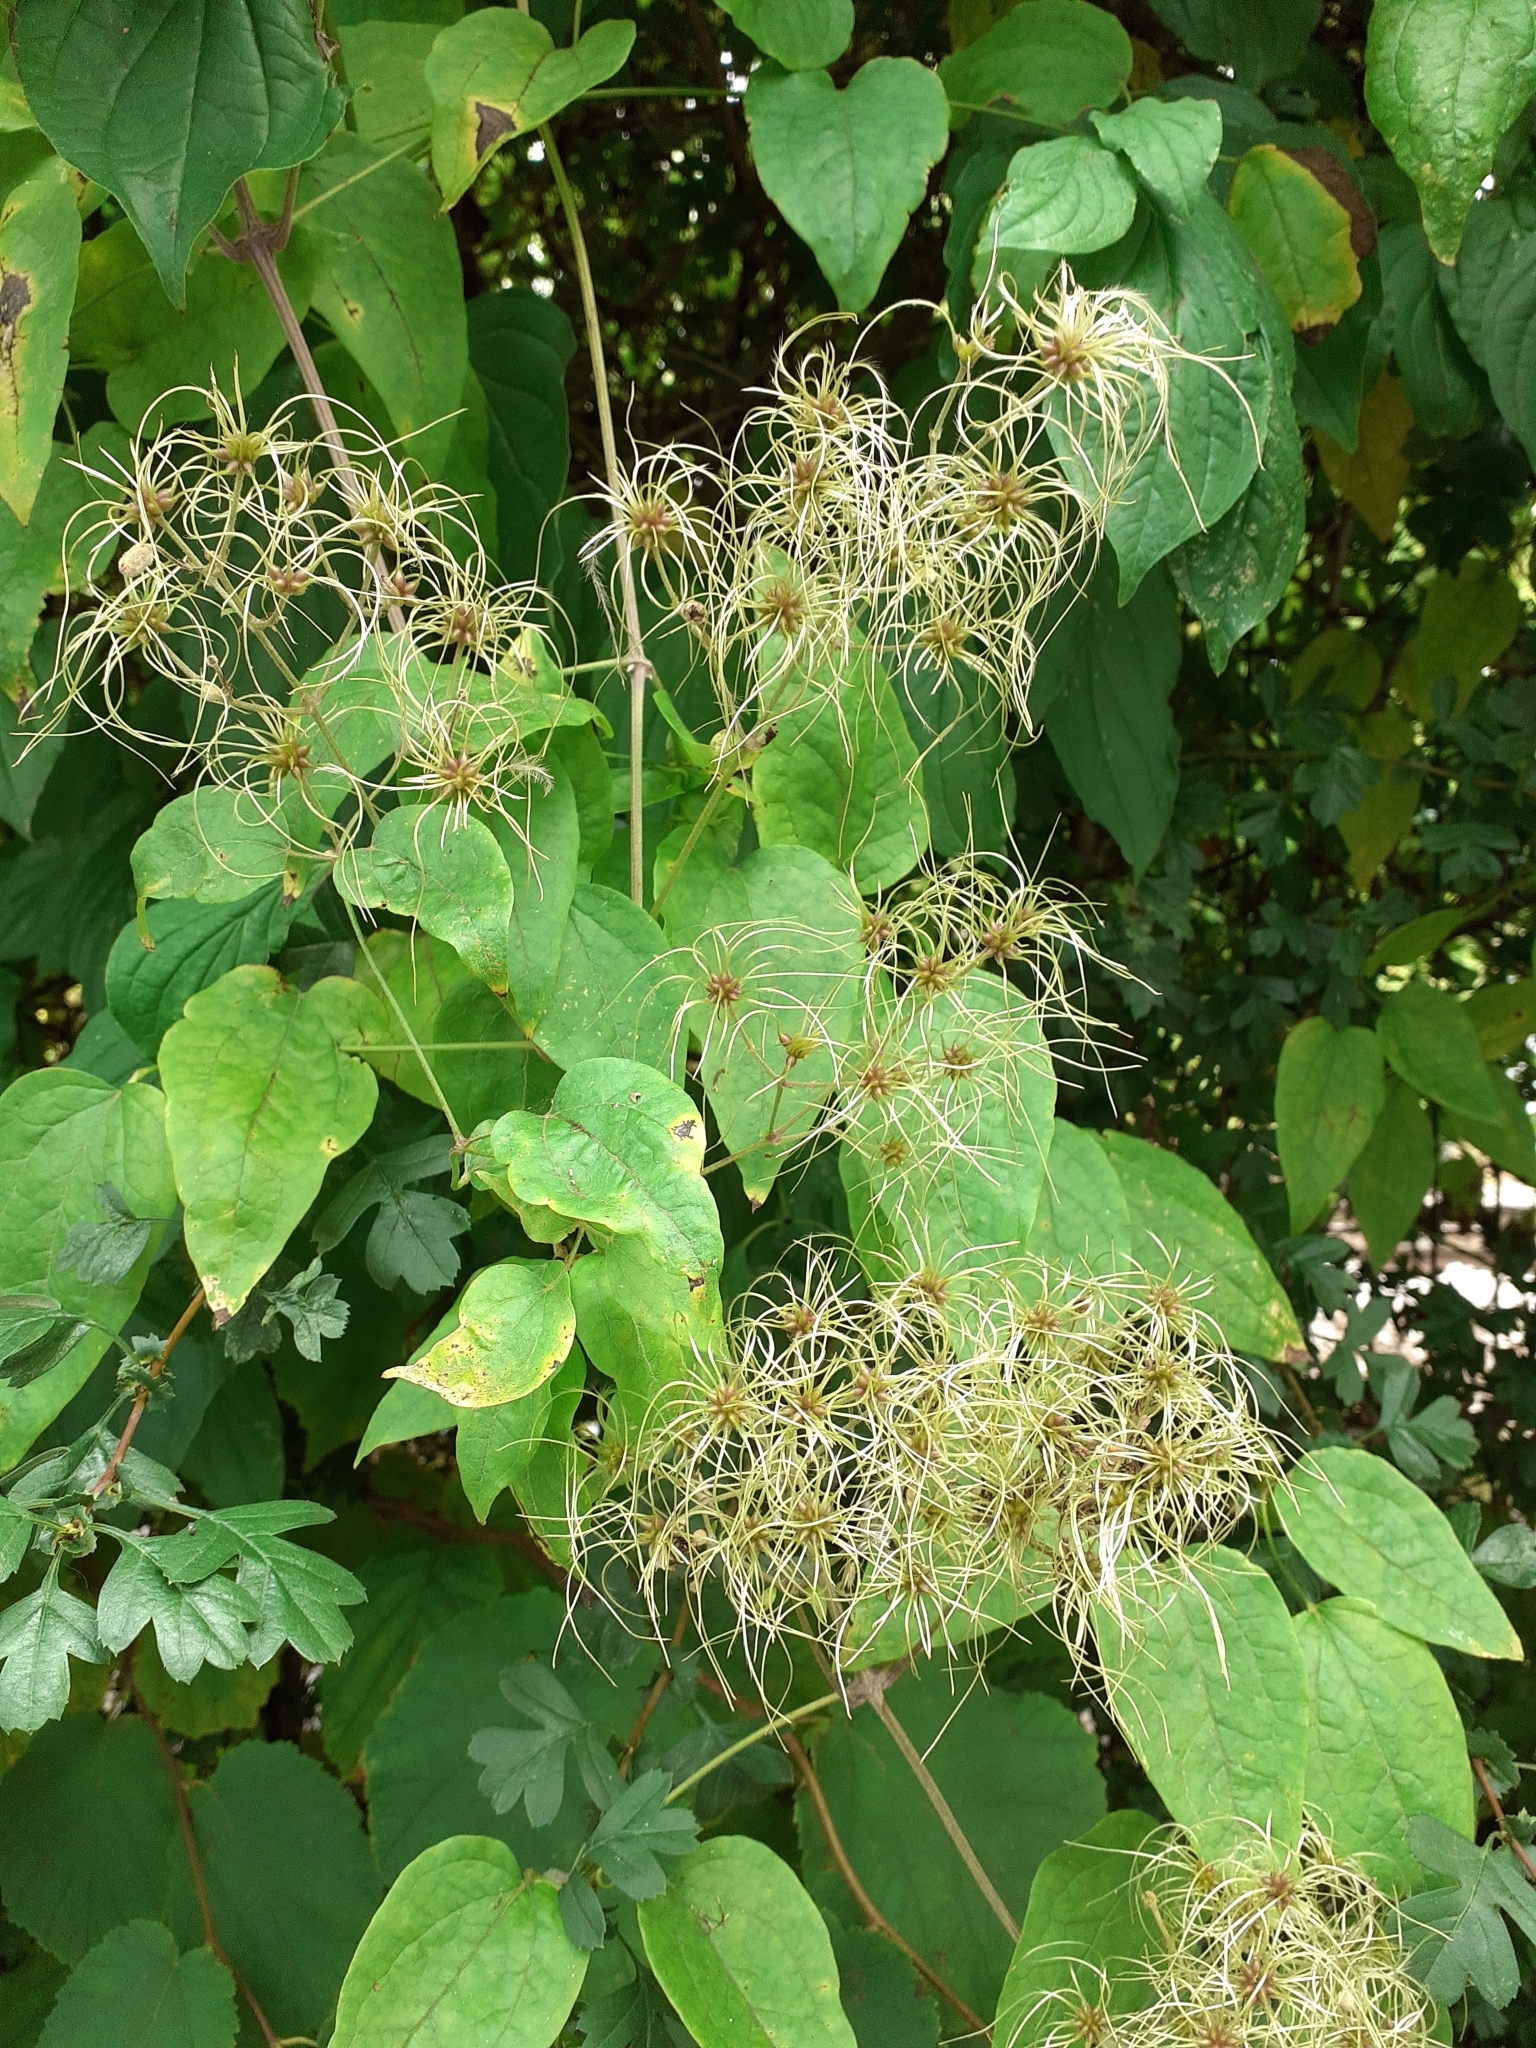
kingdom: Plantae
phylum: Tracheophyta
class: Magnoliopsida
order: Ranunculales
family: Ranunculaceae
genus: Clematis
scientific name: Clematis vitalba
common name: Evergreen clematis
